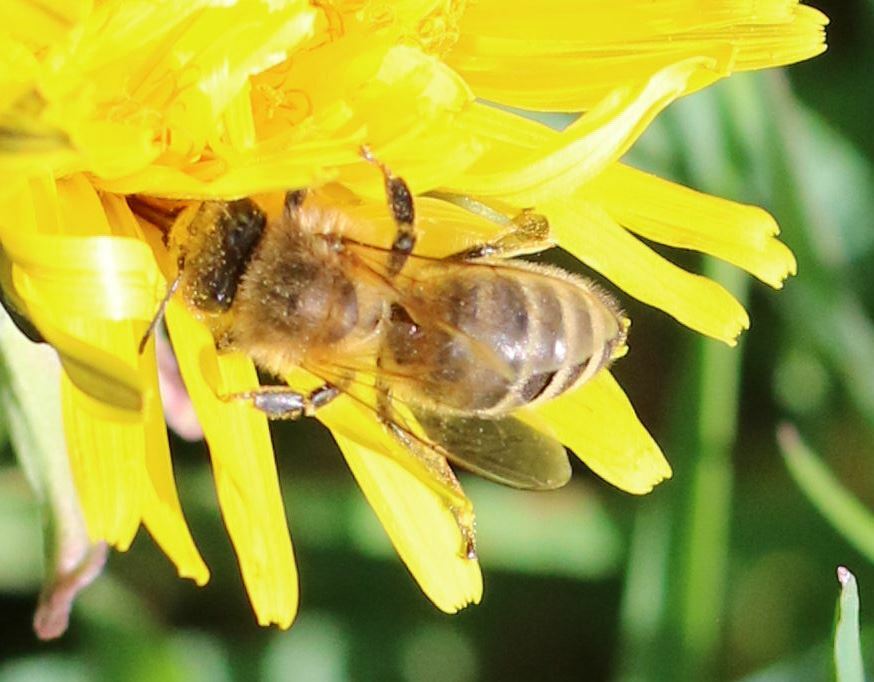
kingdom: Animalia
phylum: Arthropoda
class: Insecta
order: Hymenoptera
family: Apidae
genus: Apis
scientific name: Apis mellifera
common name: Honey bee
